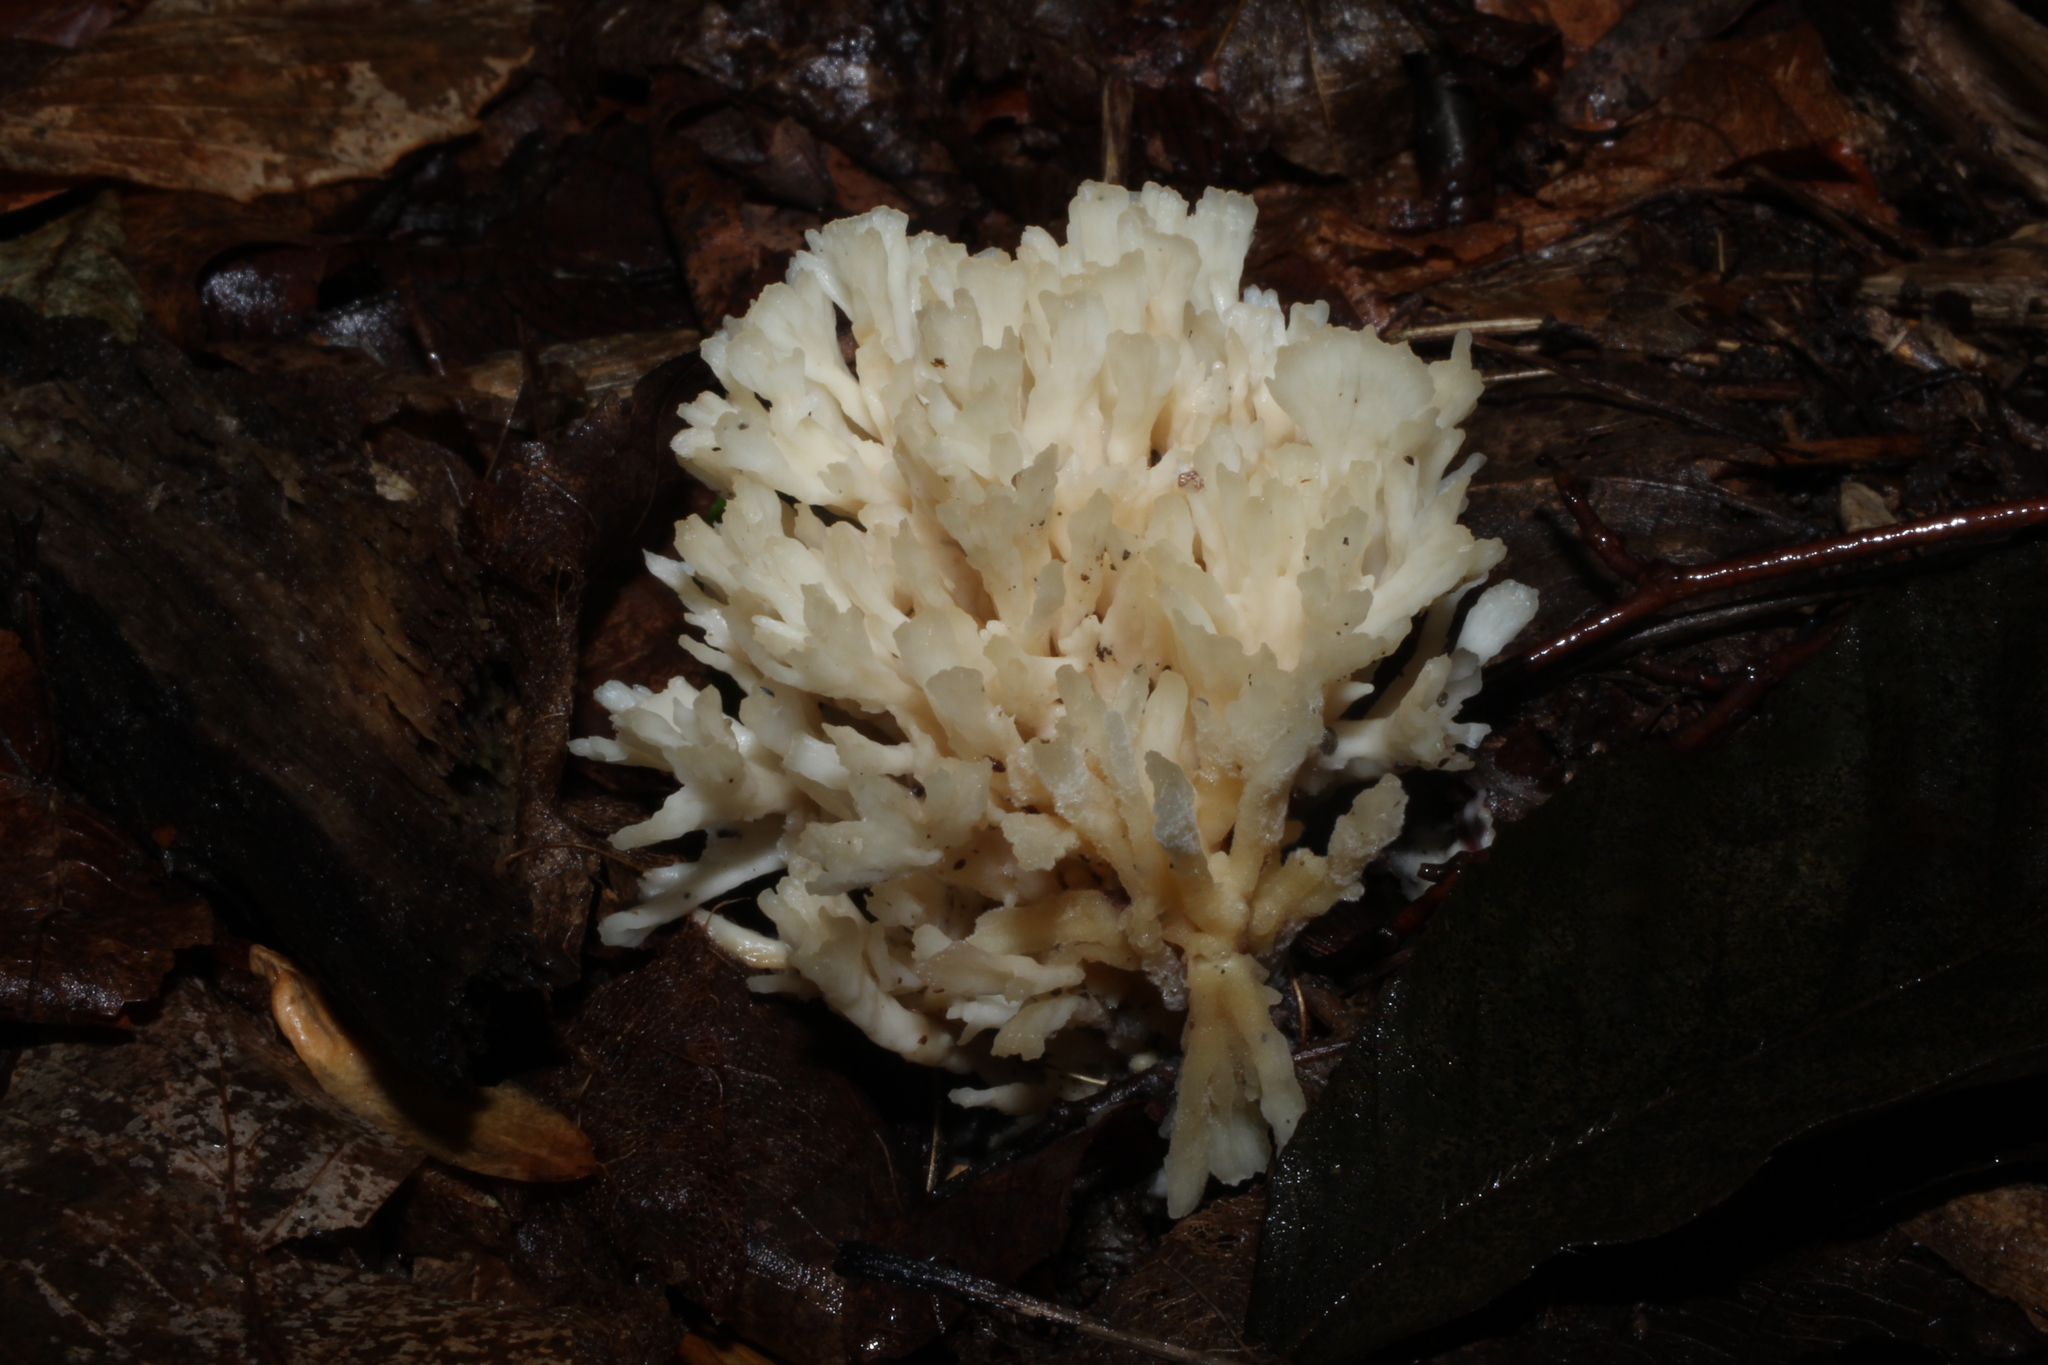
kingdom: Fungi
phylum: Basidiomycota
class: Agaricomycetes
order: Sebacinales
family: Sebacinaceae
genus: Sebacina
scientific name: Sebacina schweinitzii
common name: Jellied false coral fungus
